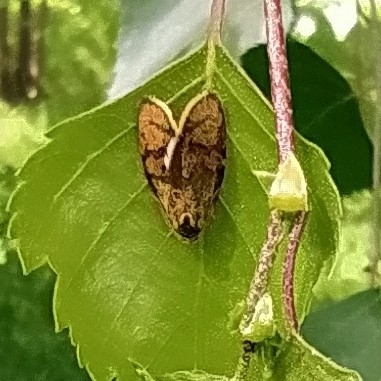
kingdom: Animalia
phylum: Arthropoda
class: Insecta
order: Lepidoptera
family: Tortricidae
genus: Ptycholoma
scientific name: Ptycholoma lecheana
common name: Leches twist moth
